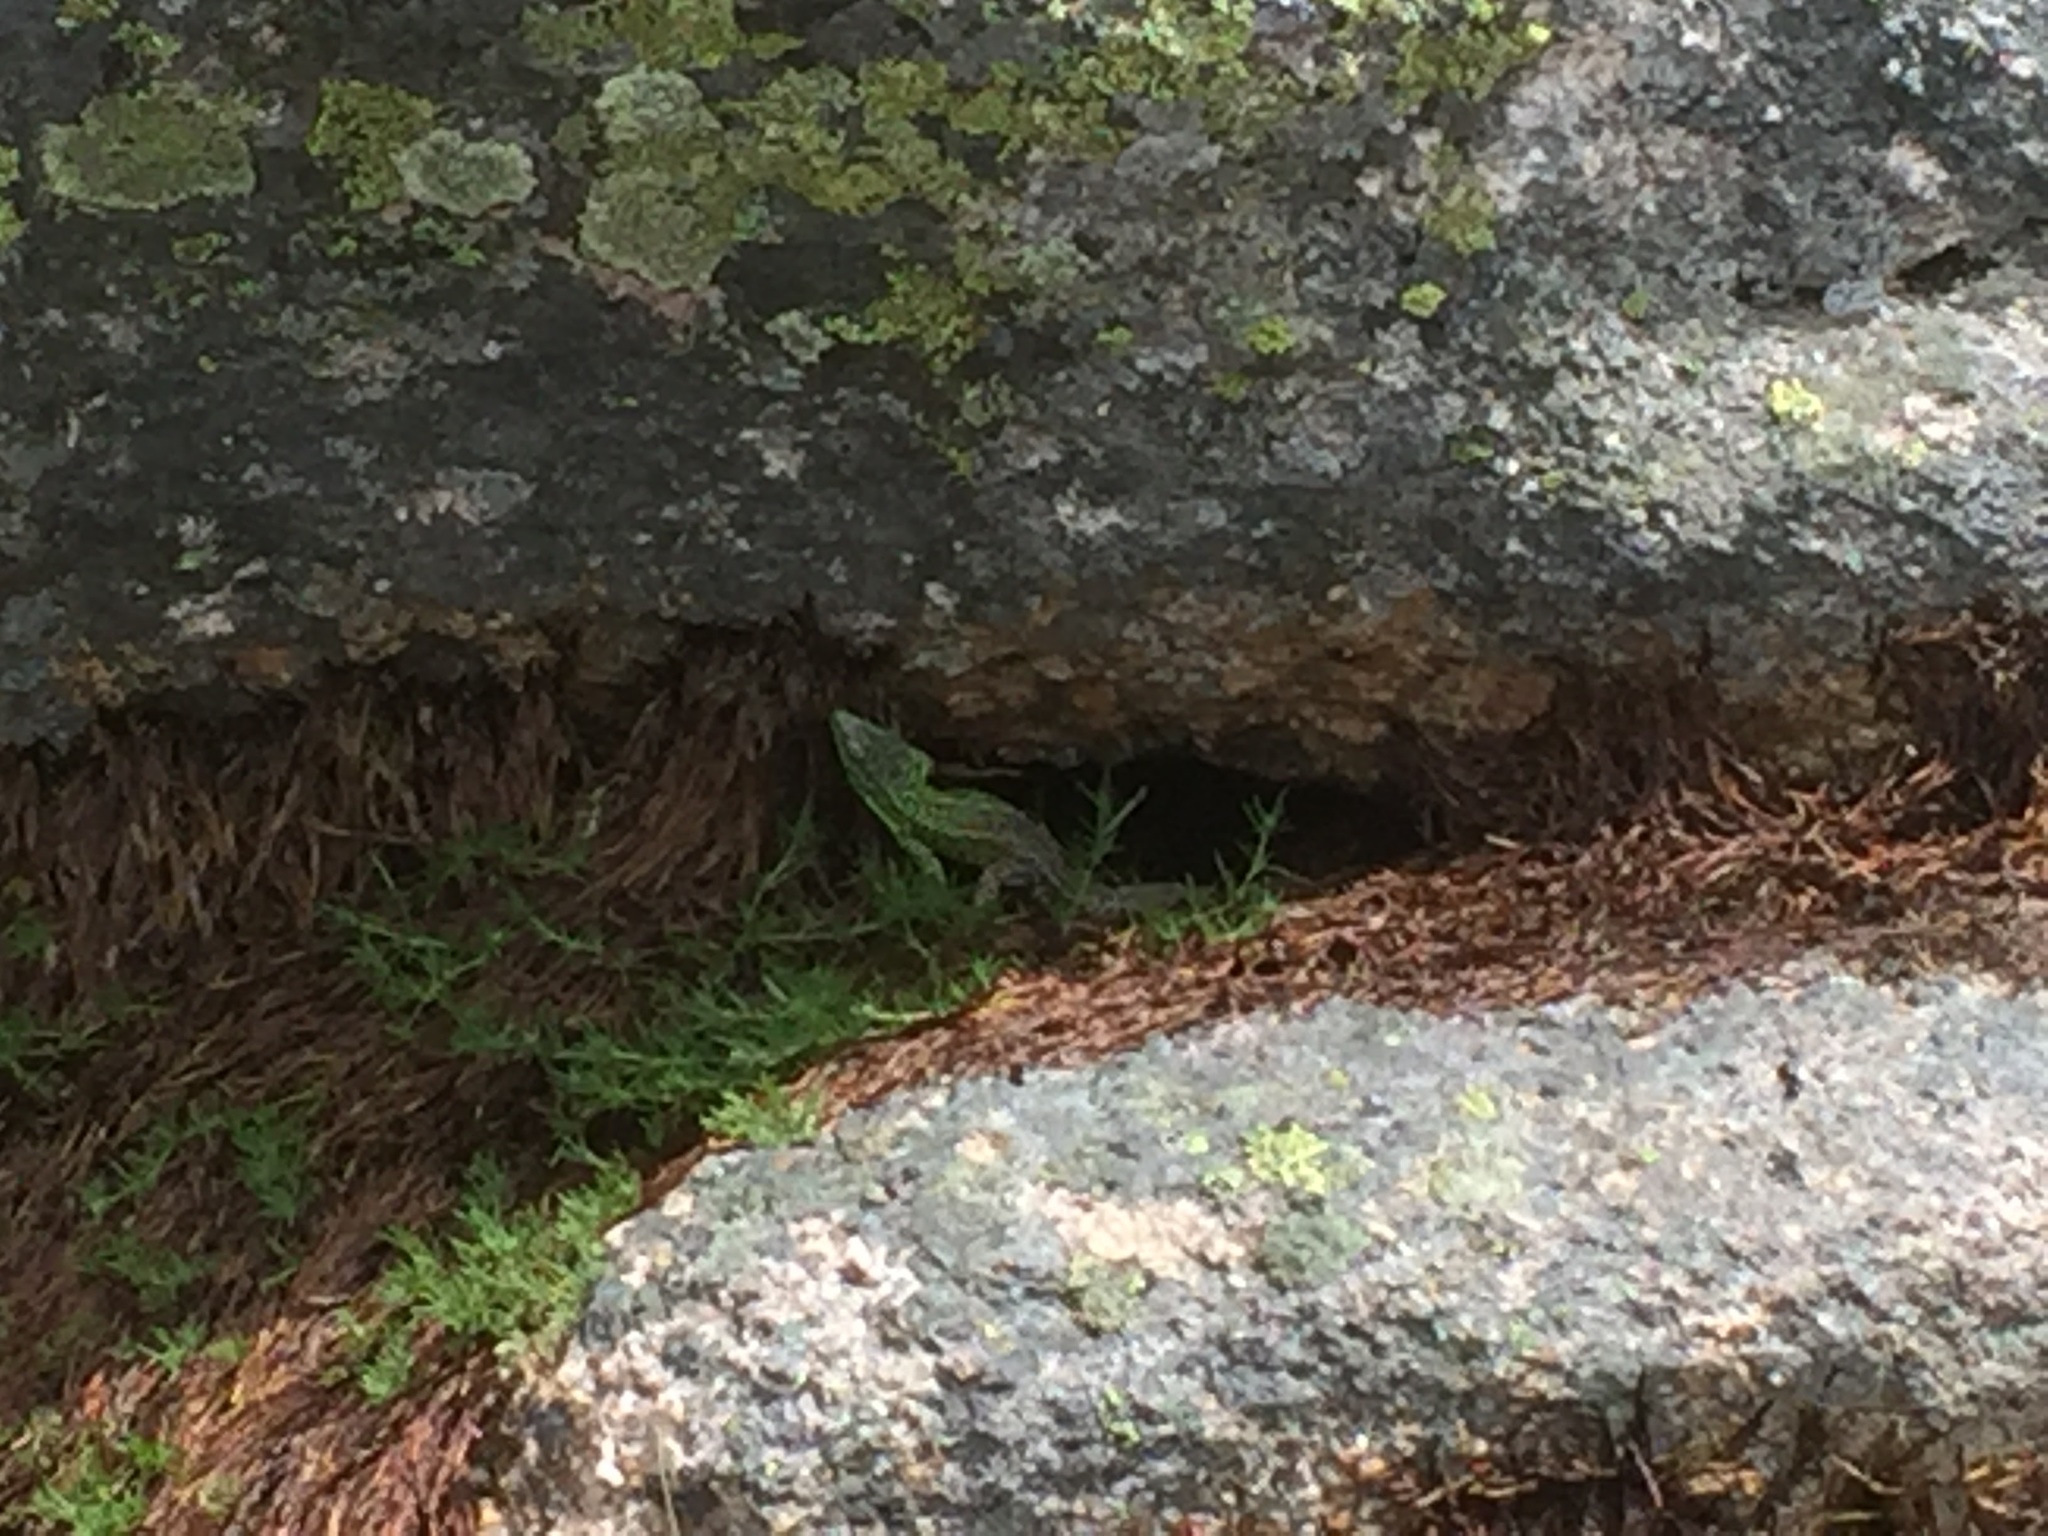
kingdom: Animalia
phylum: Chordata
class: Squamata
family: Lacertidae
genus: Lacerta
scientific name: Lacerta schreiberi
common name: Iberian emerald lizard
